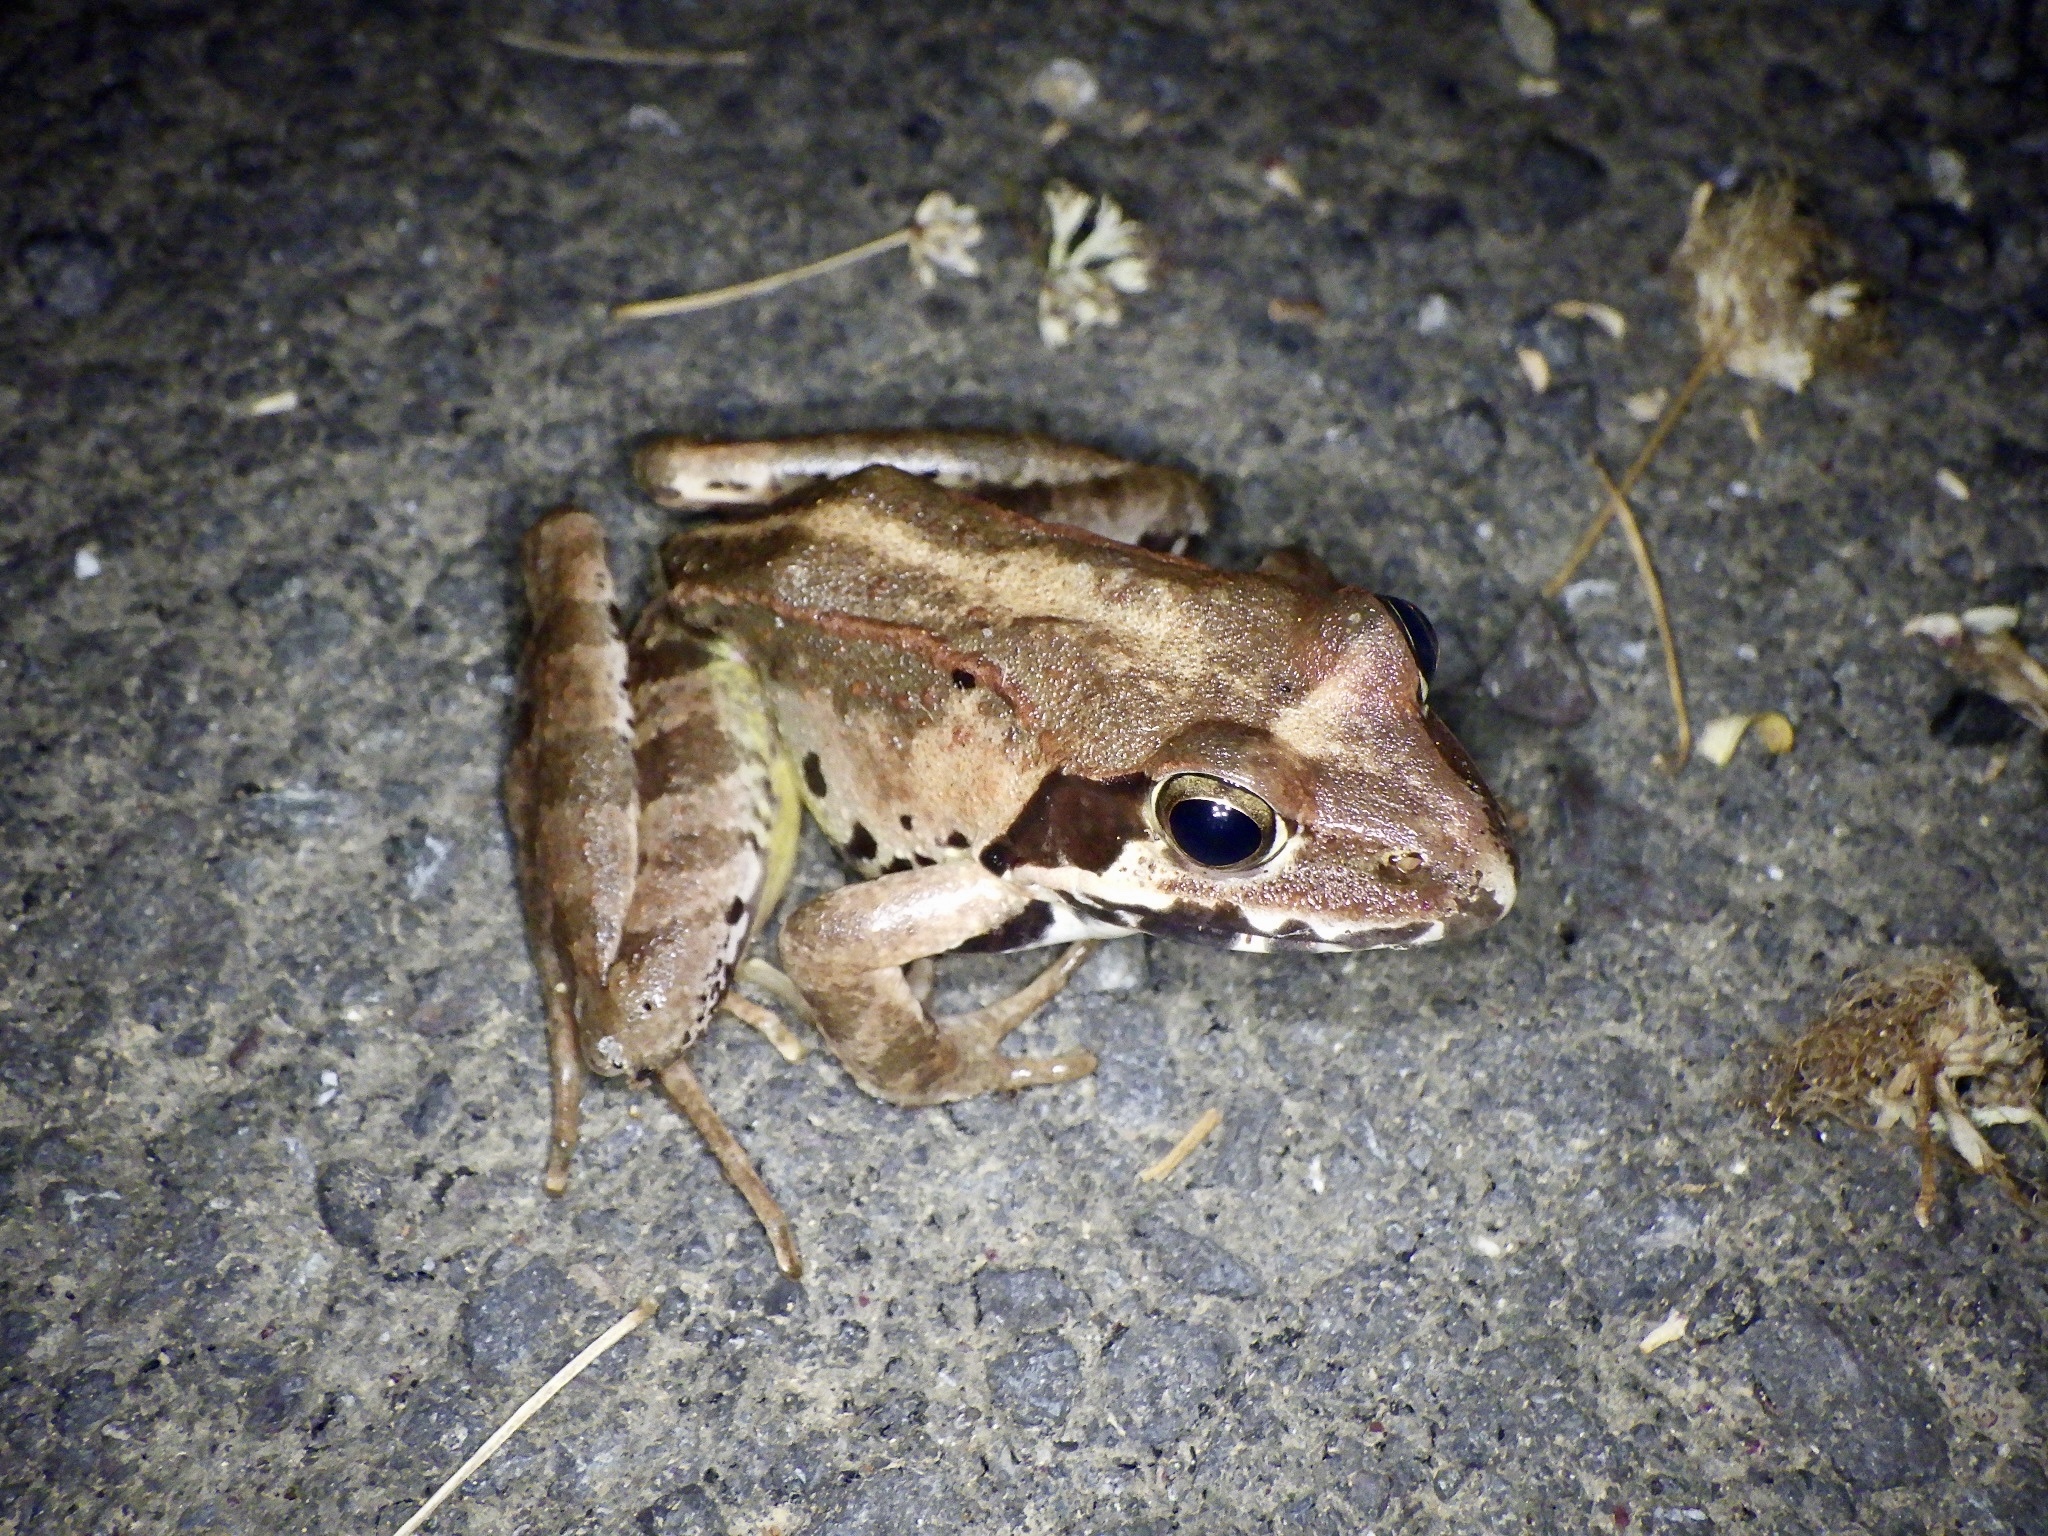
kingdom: Animalia
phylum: Chordata
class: Amphibia
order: Anura
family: Ranidae
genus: Rana
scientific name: Rana ornativentris
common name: Montane brown frog
